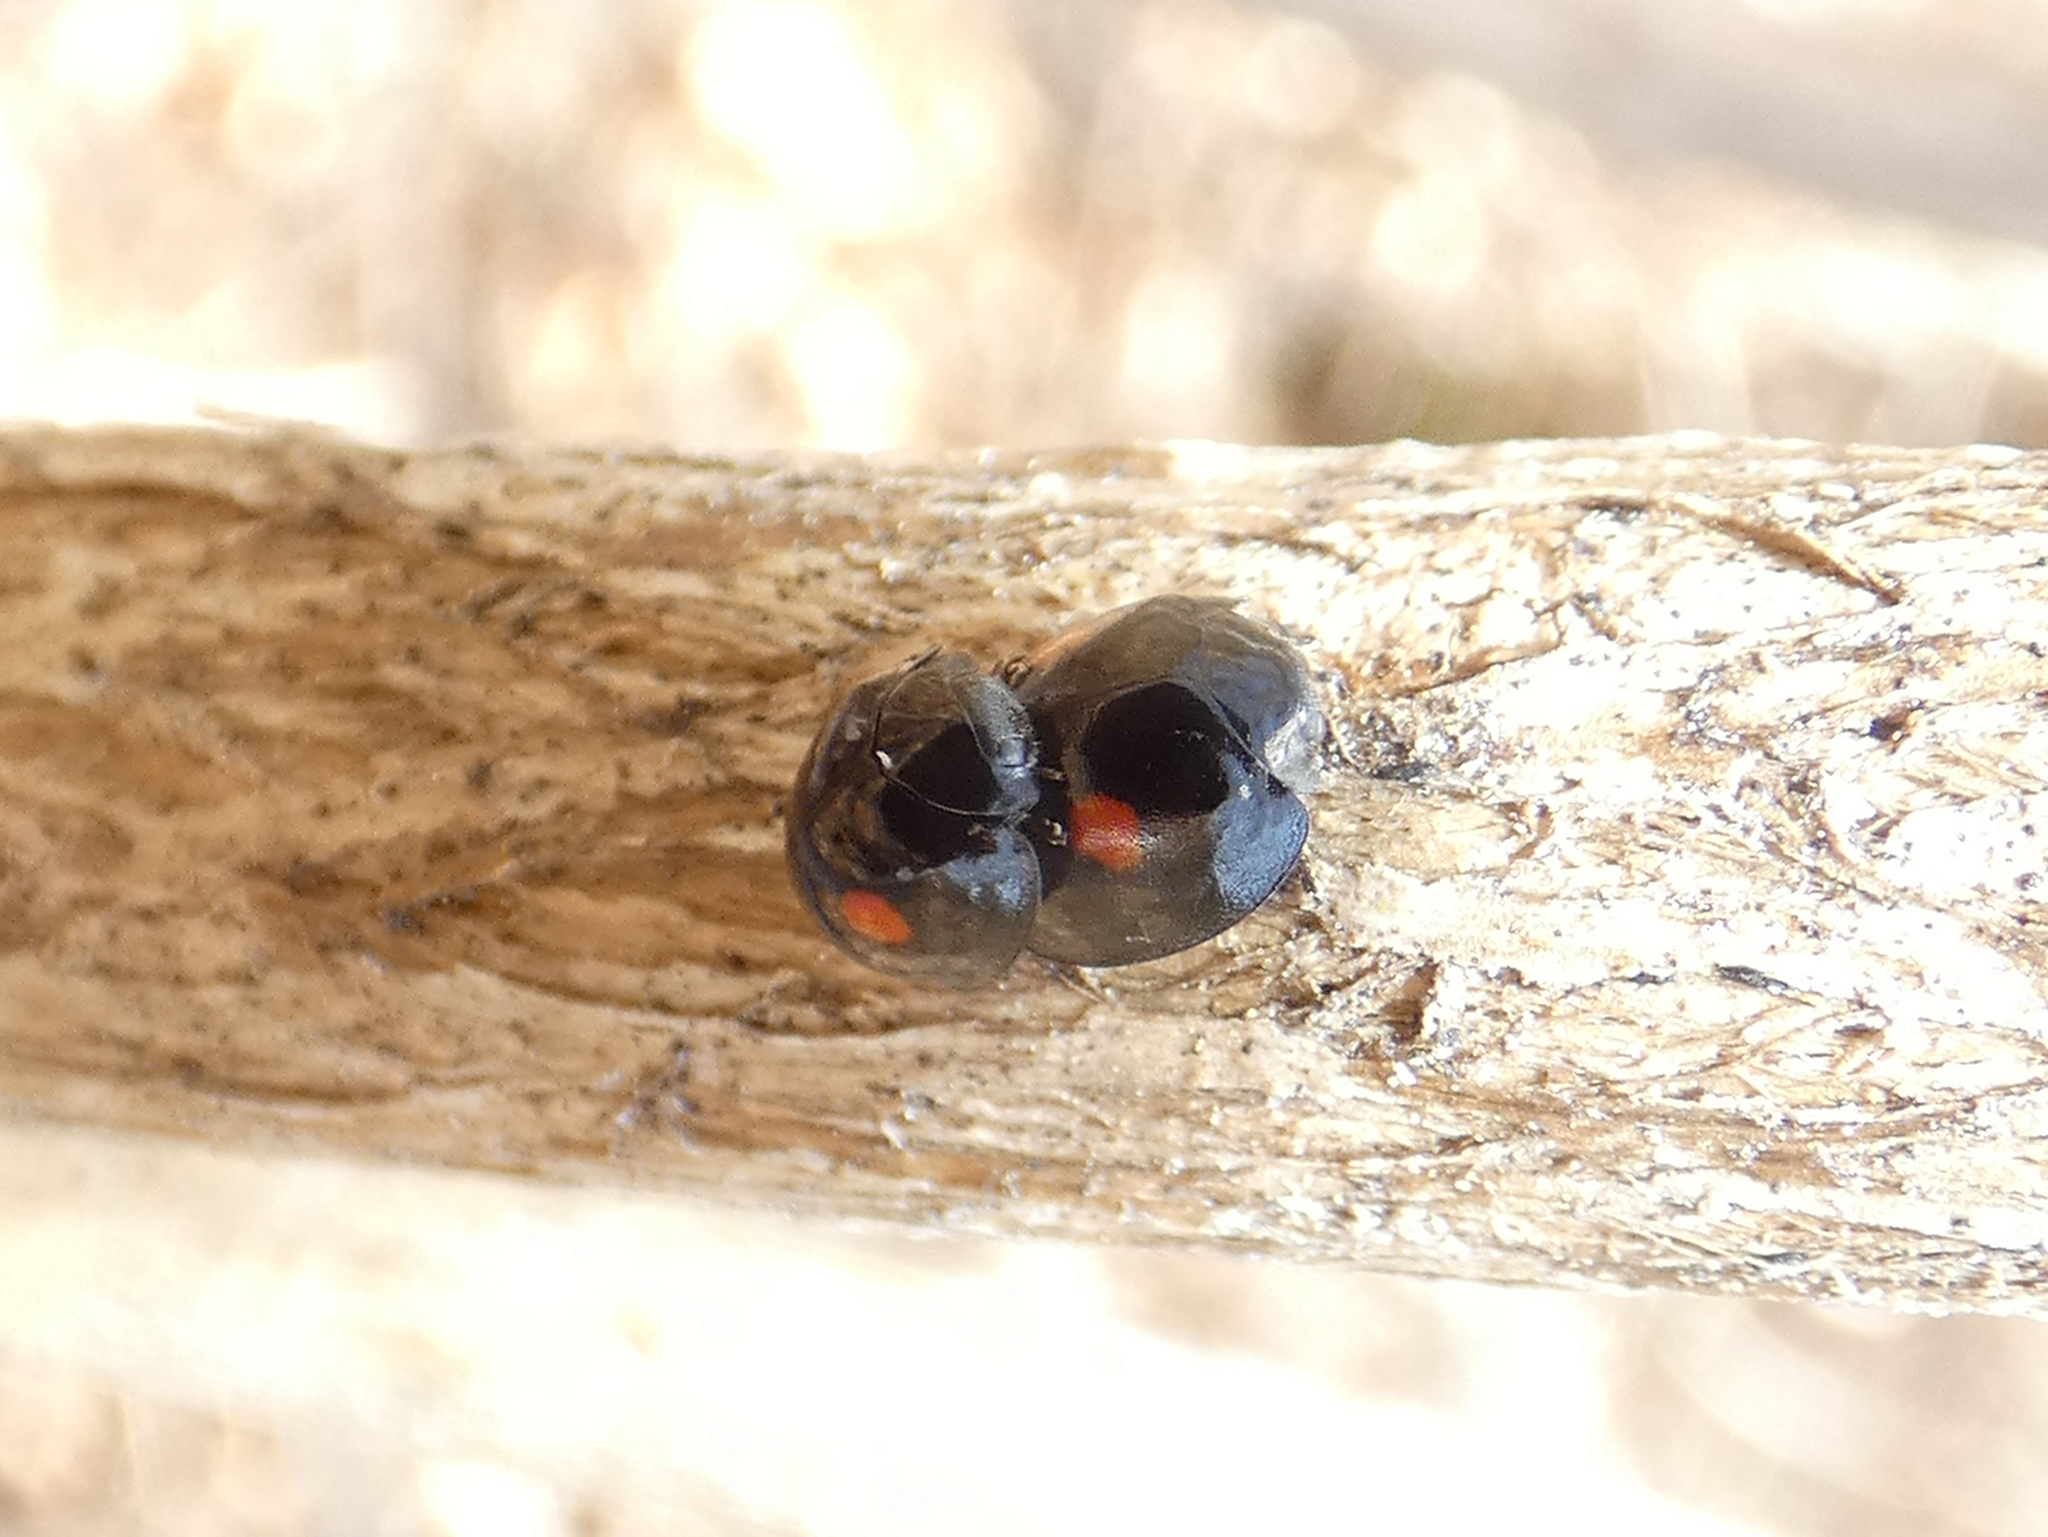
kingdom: Animalia
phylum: Arthropoda
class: Insecta
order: Coleoptera
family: Coccinellidae
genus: Chilocorus
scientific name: Chilocorus stigma
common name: Twicestabbed lady beetle
